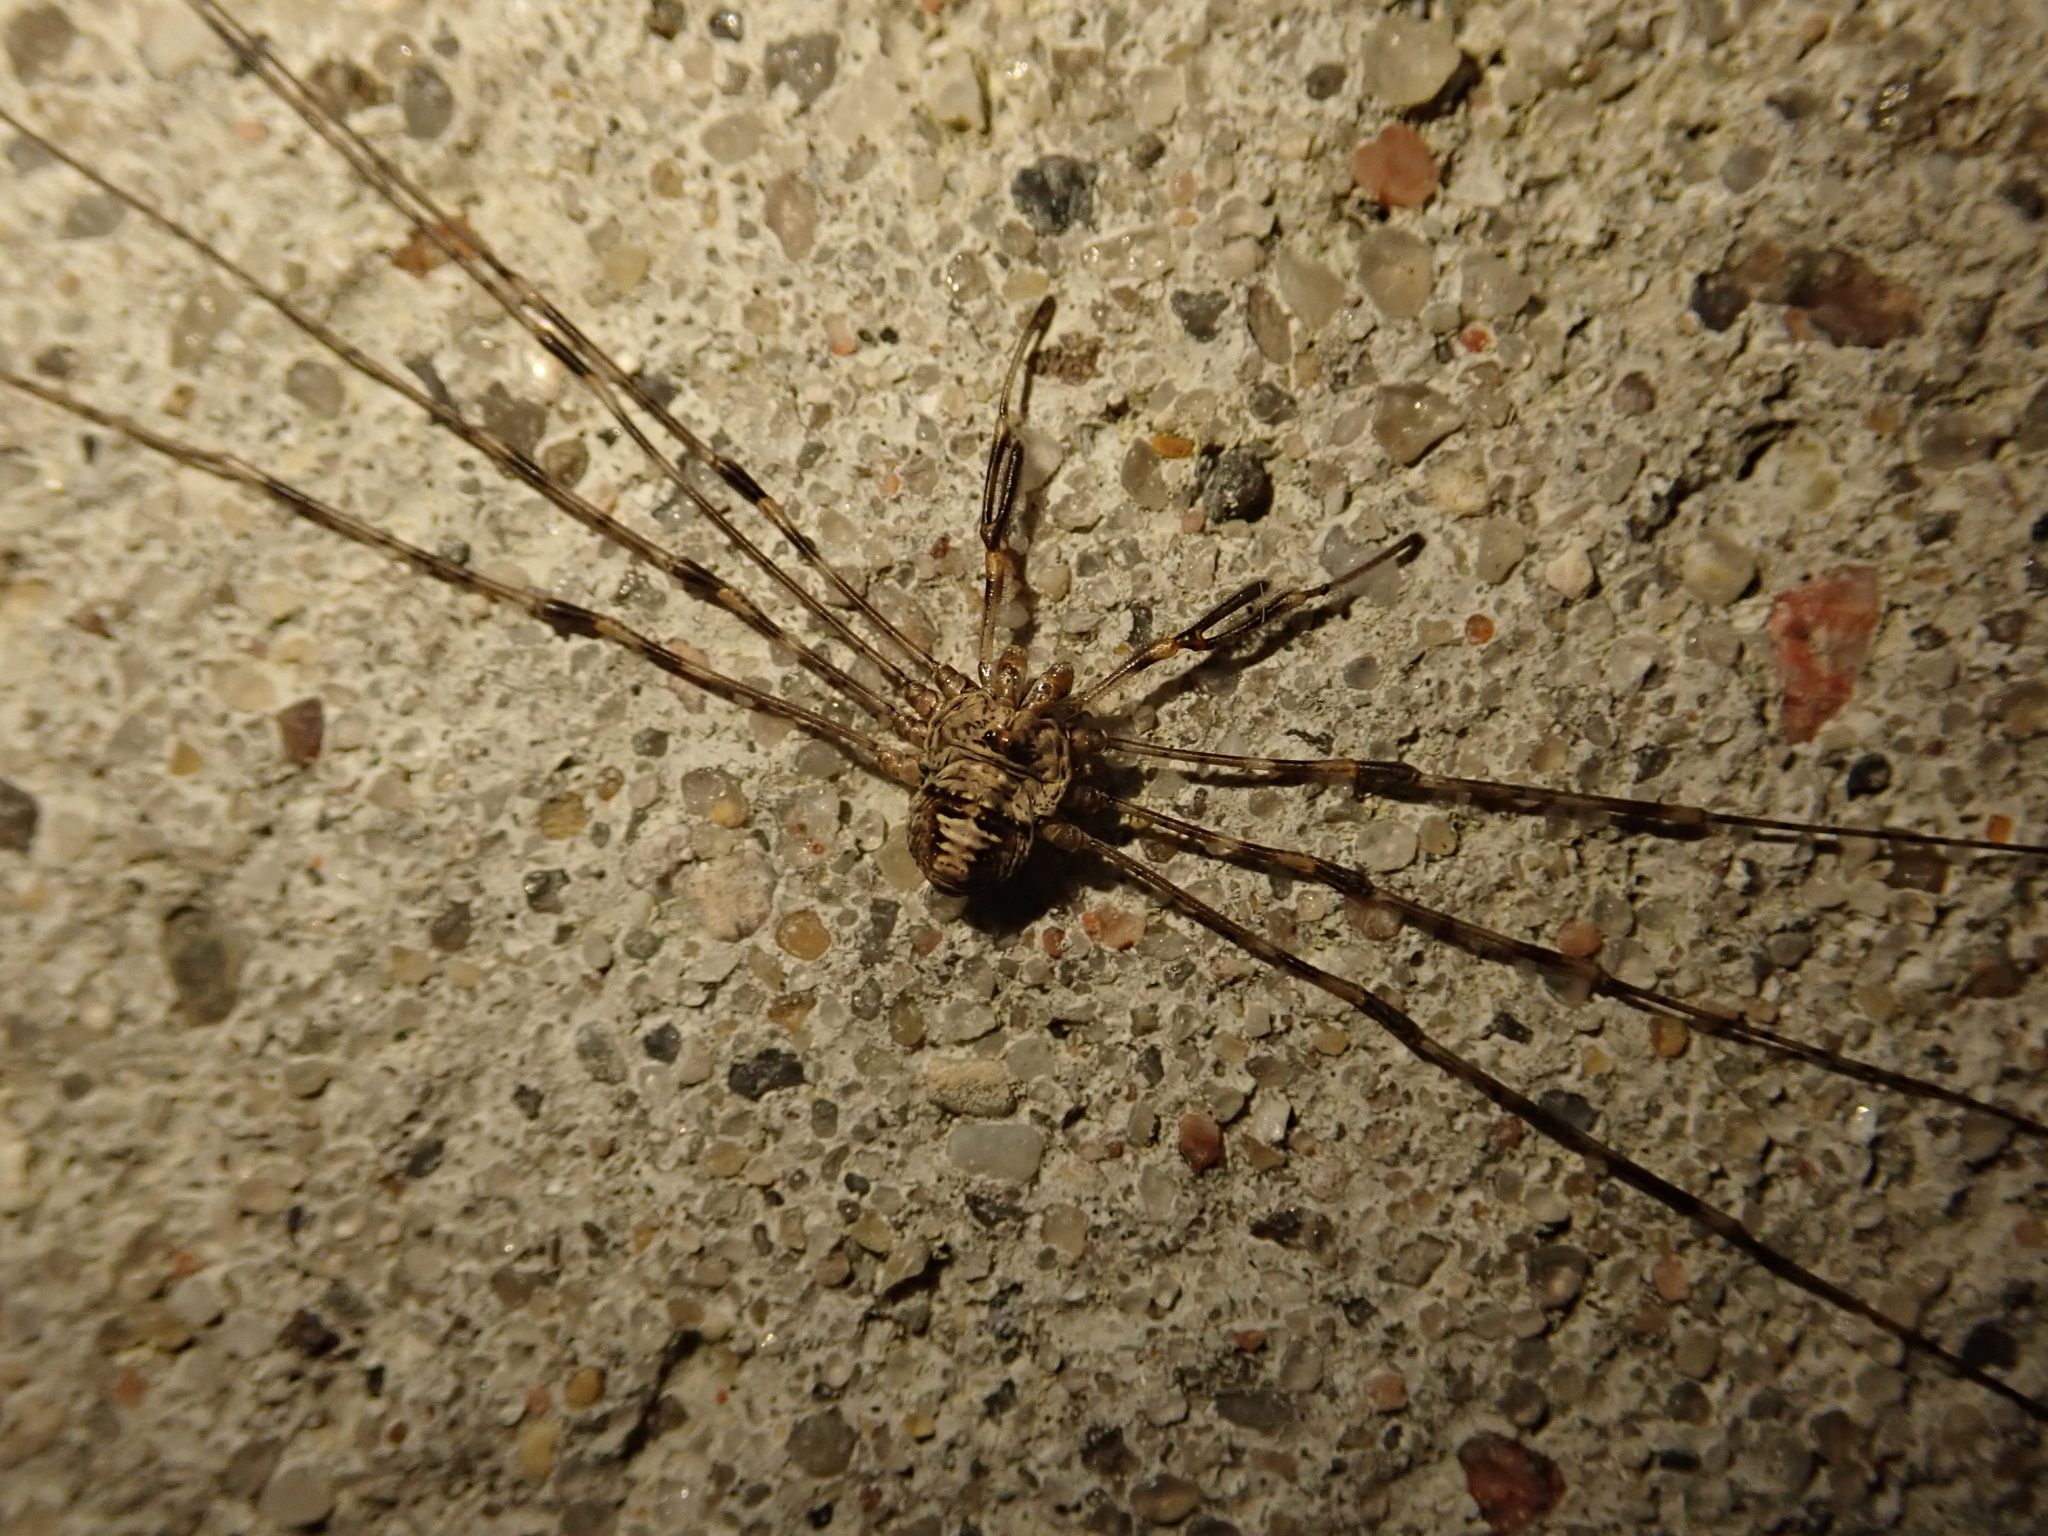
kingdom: Animalia
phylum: Arthropoda
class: Arachnida
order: Opiliones
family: Phalangiidae
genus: Dicranopalpus
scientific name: Dicranopalpus ramosus
